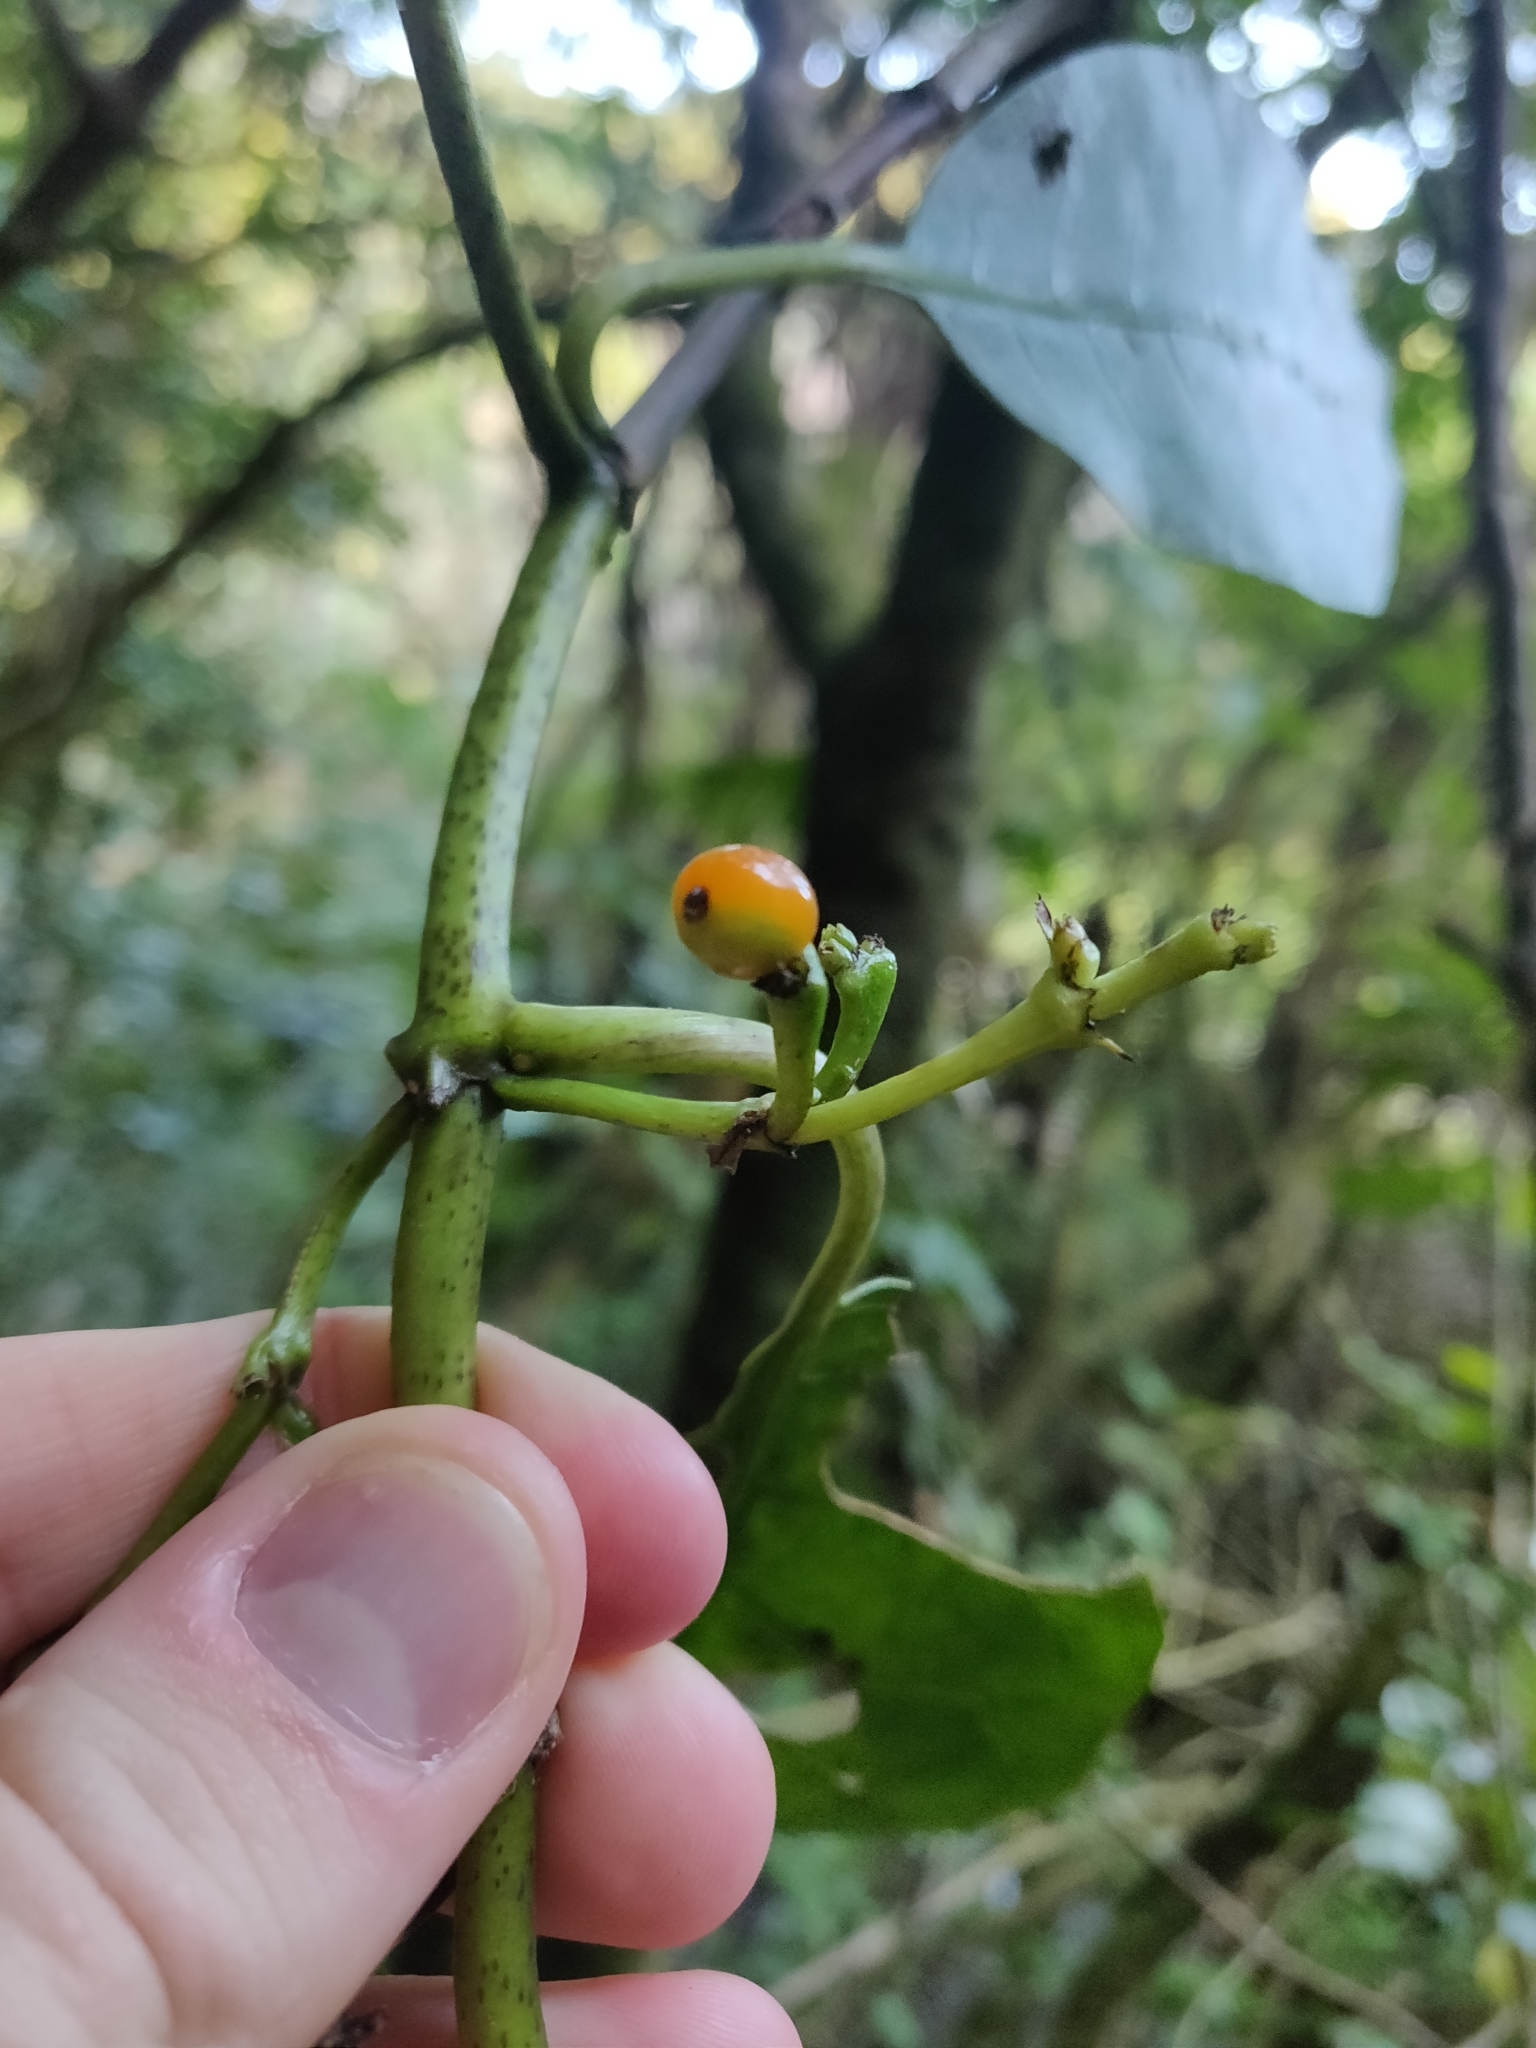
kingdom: Plantae
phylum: Tracheophyta
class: Magnoliopsida
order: Gentianales
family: Rubiaceae
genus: Coprosma
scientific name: Coprosma autumnalis
